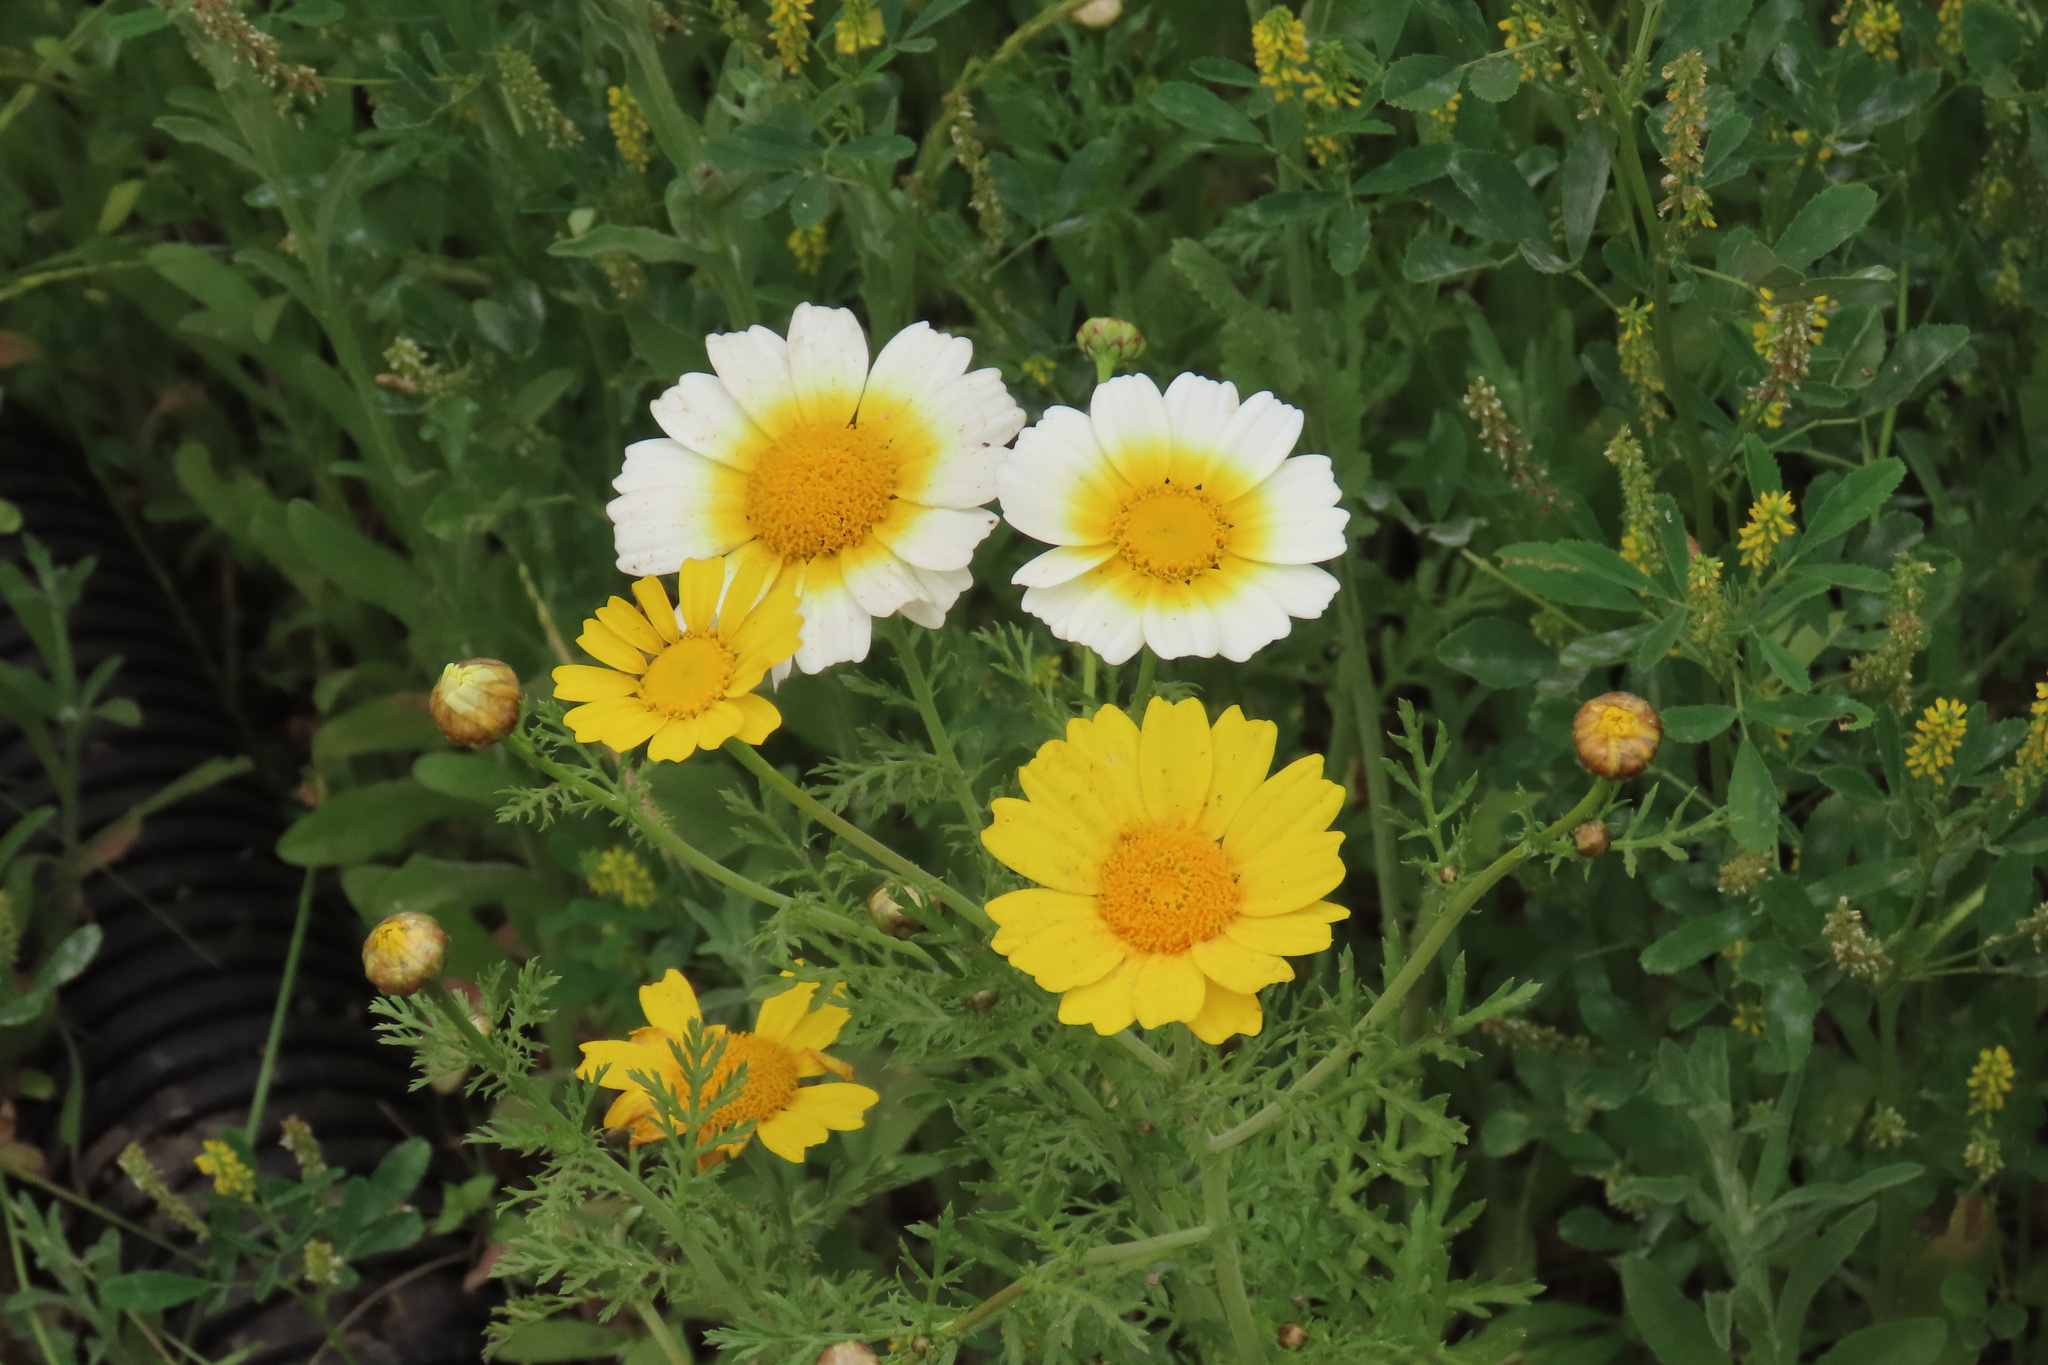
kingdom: Plantae
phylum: Tracheophyta
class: Magnoliopsida
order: Asterales
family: Asteraceae
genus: Glebionis
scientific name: Glebionis coronaria
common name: Crowndaisy
